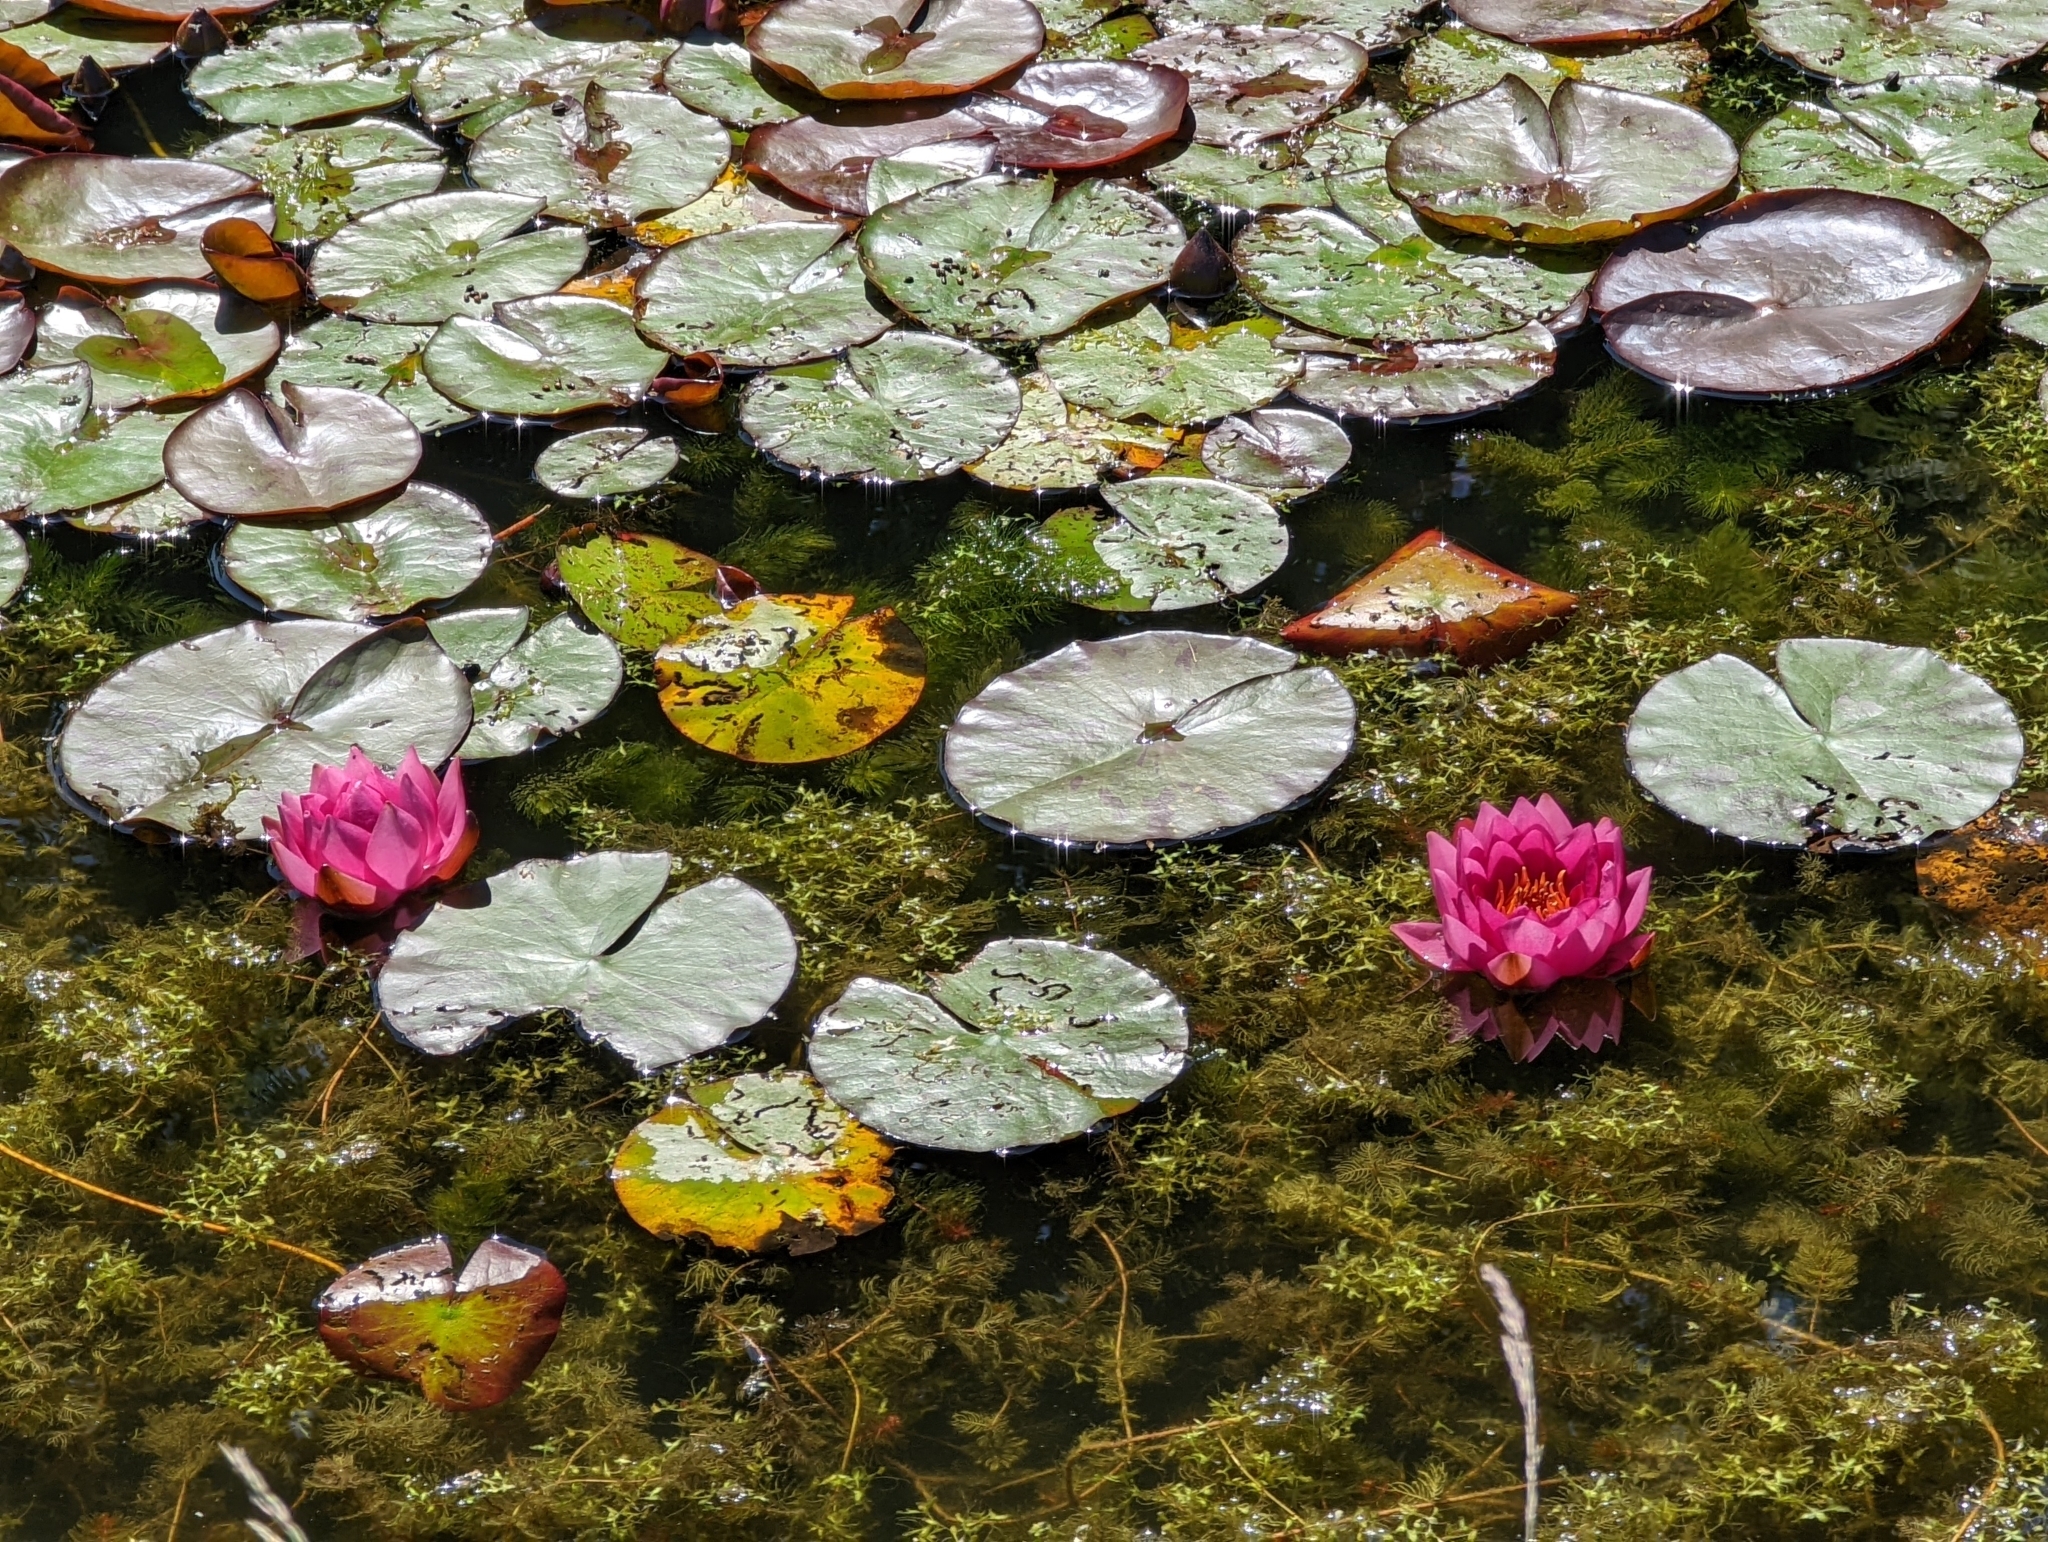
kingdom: Plantae
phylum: Tracheophyta
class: Magnoliopsida
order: Nymphaeales
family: Nymphaeaceae
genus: Nymphaea
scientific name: Nymphaea marliacea
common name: Water-lily
